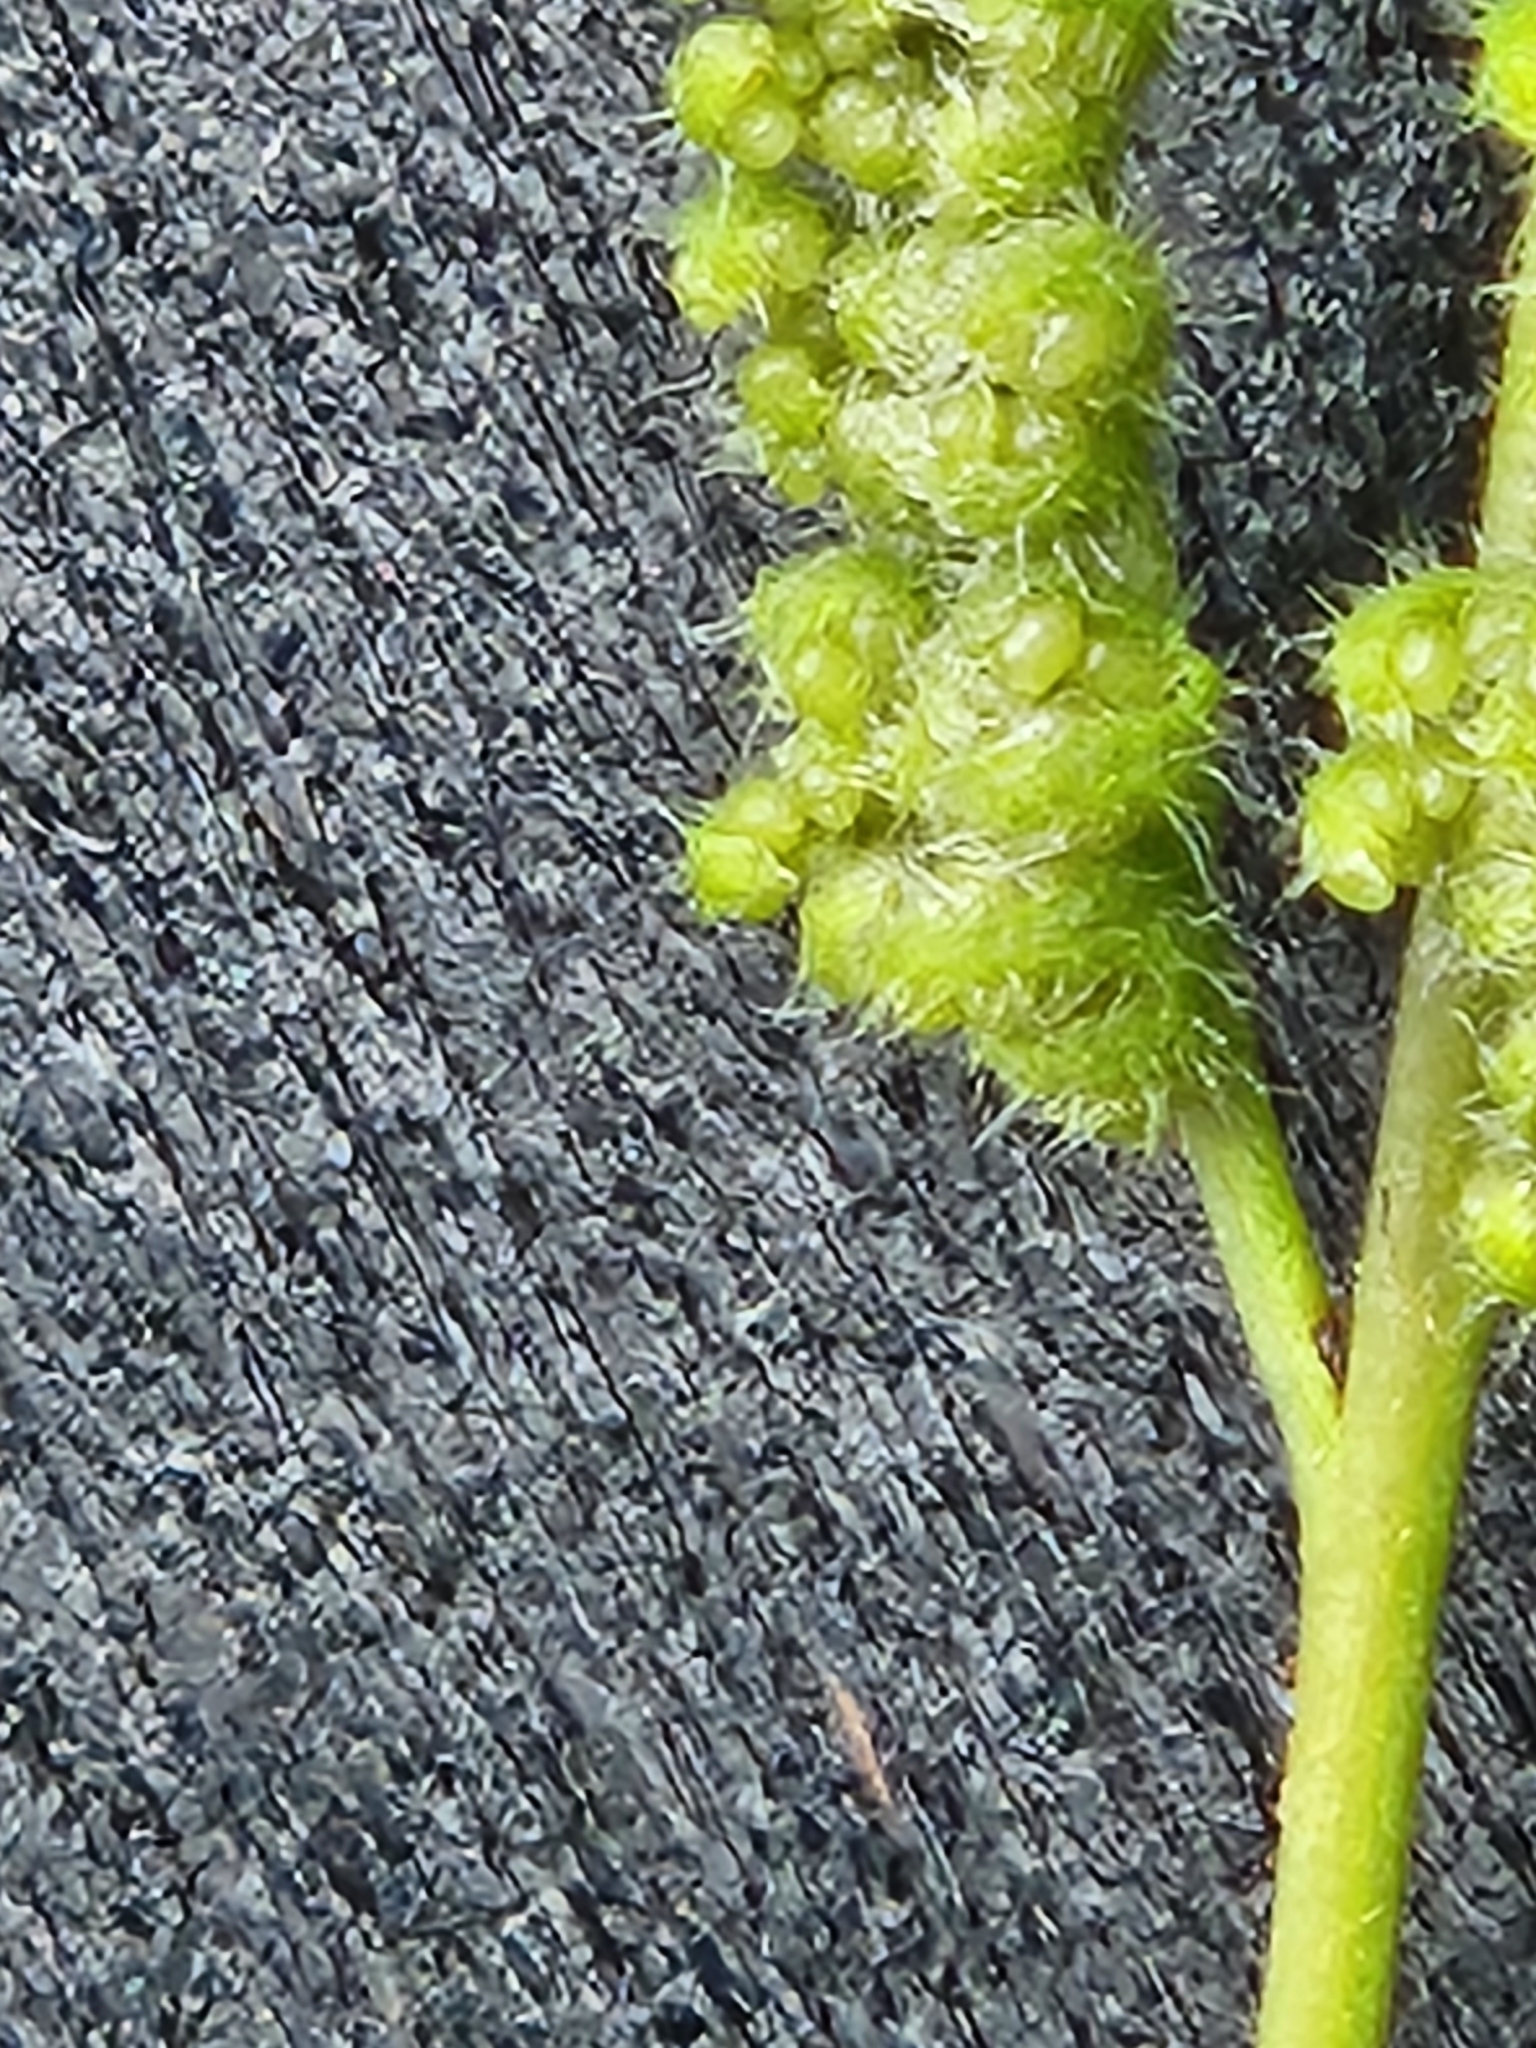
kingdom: Plantae
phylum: Tracheophyta
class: Polypodiopsida
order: Schizaeales
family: Anemiaceae
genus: Anemia
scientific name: Anemia mexicana
